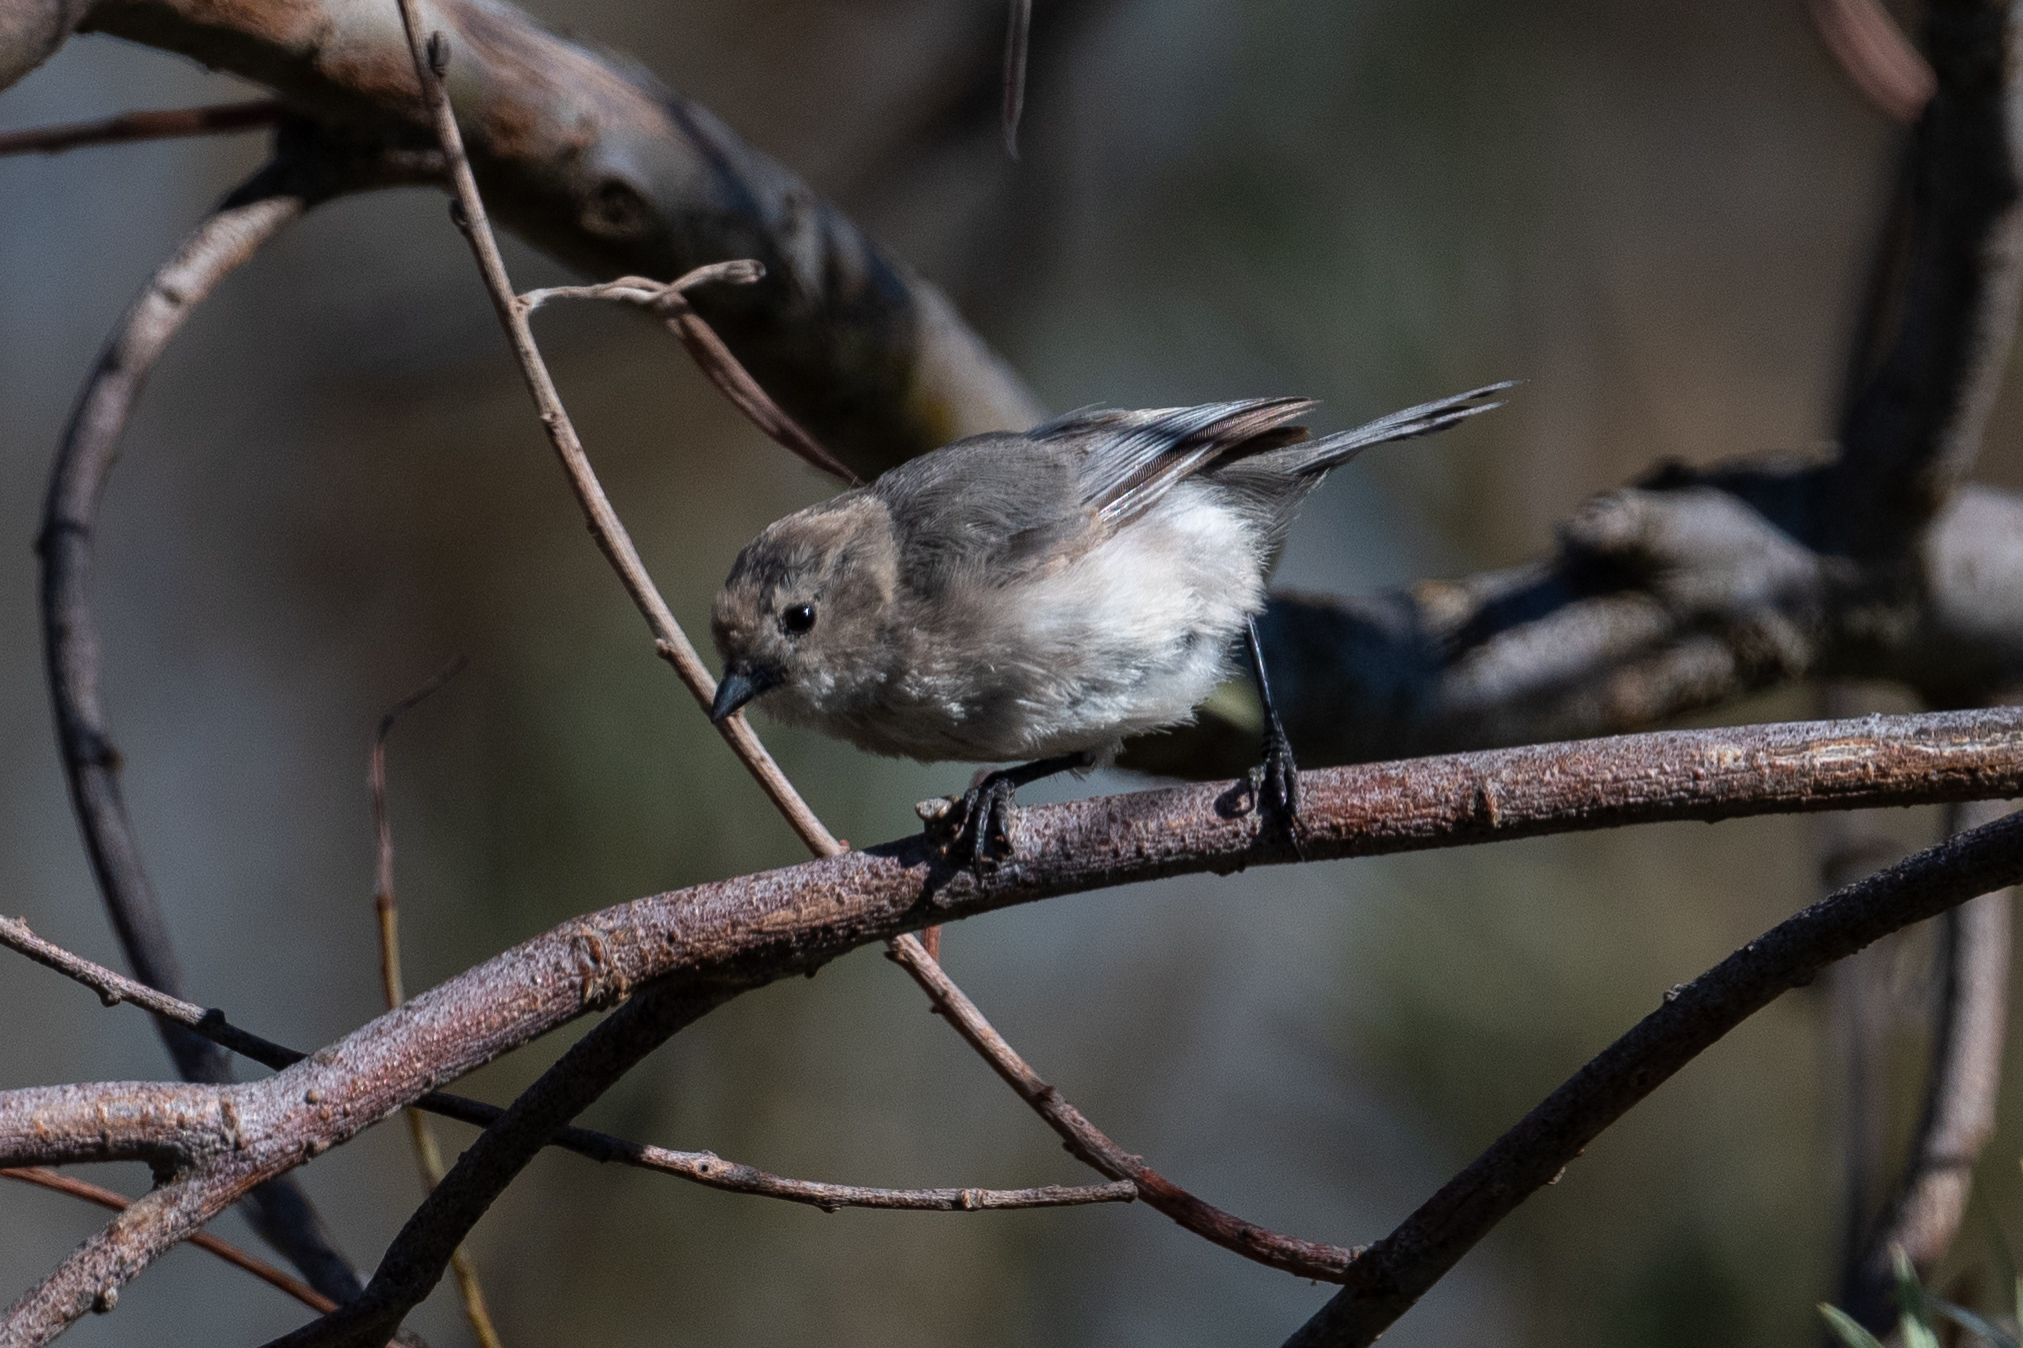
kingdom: Animalia
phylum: Chordata
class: Aves
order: Passeriformes
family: Aegithalidae
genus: Psaltriparus
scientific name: Psaltriparus minimus
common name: American bushtit
